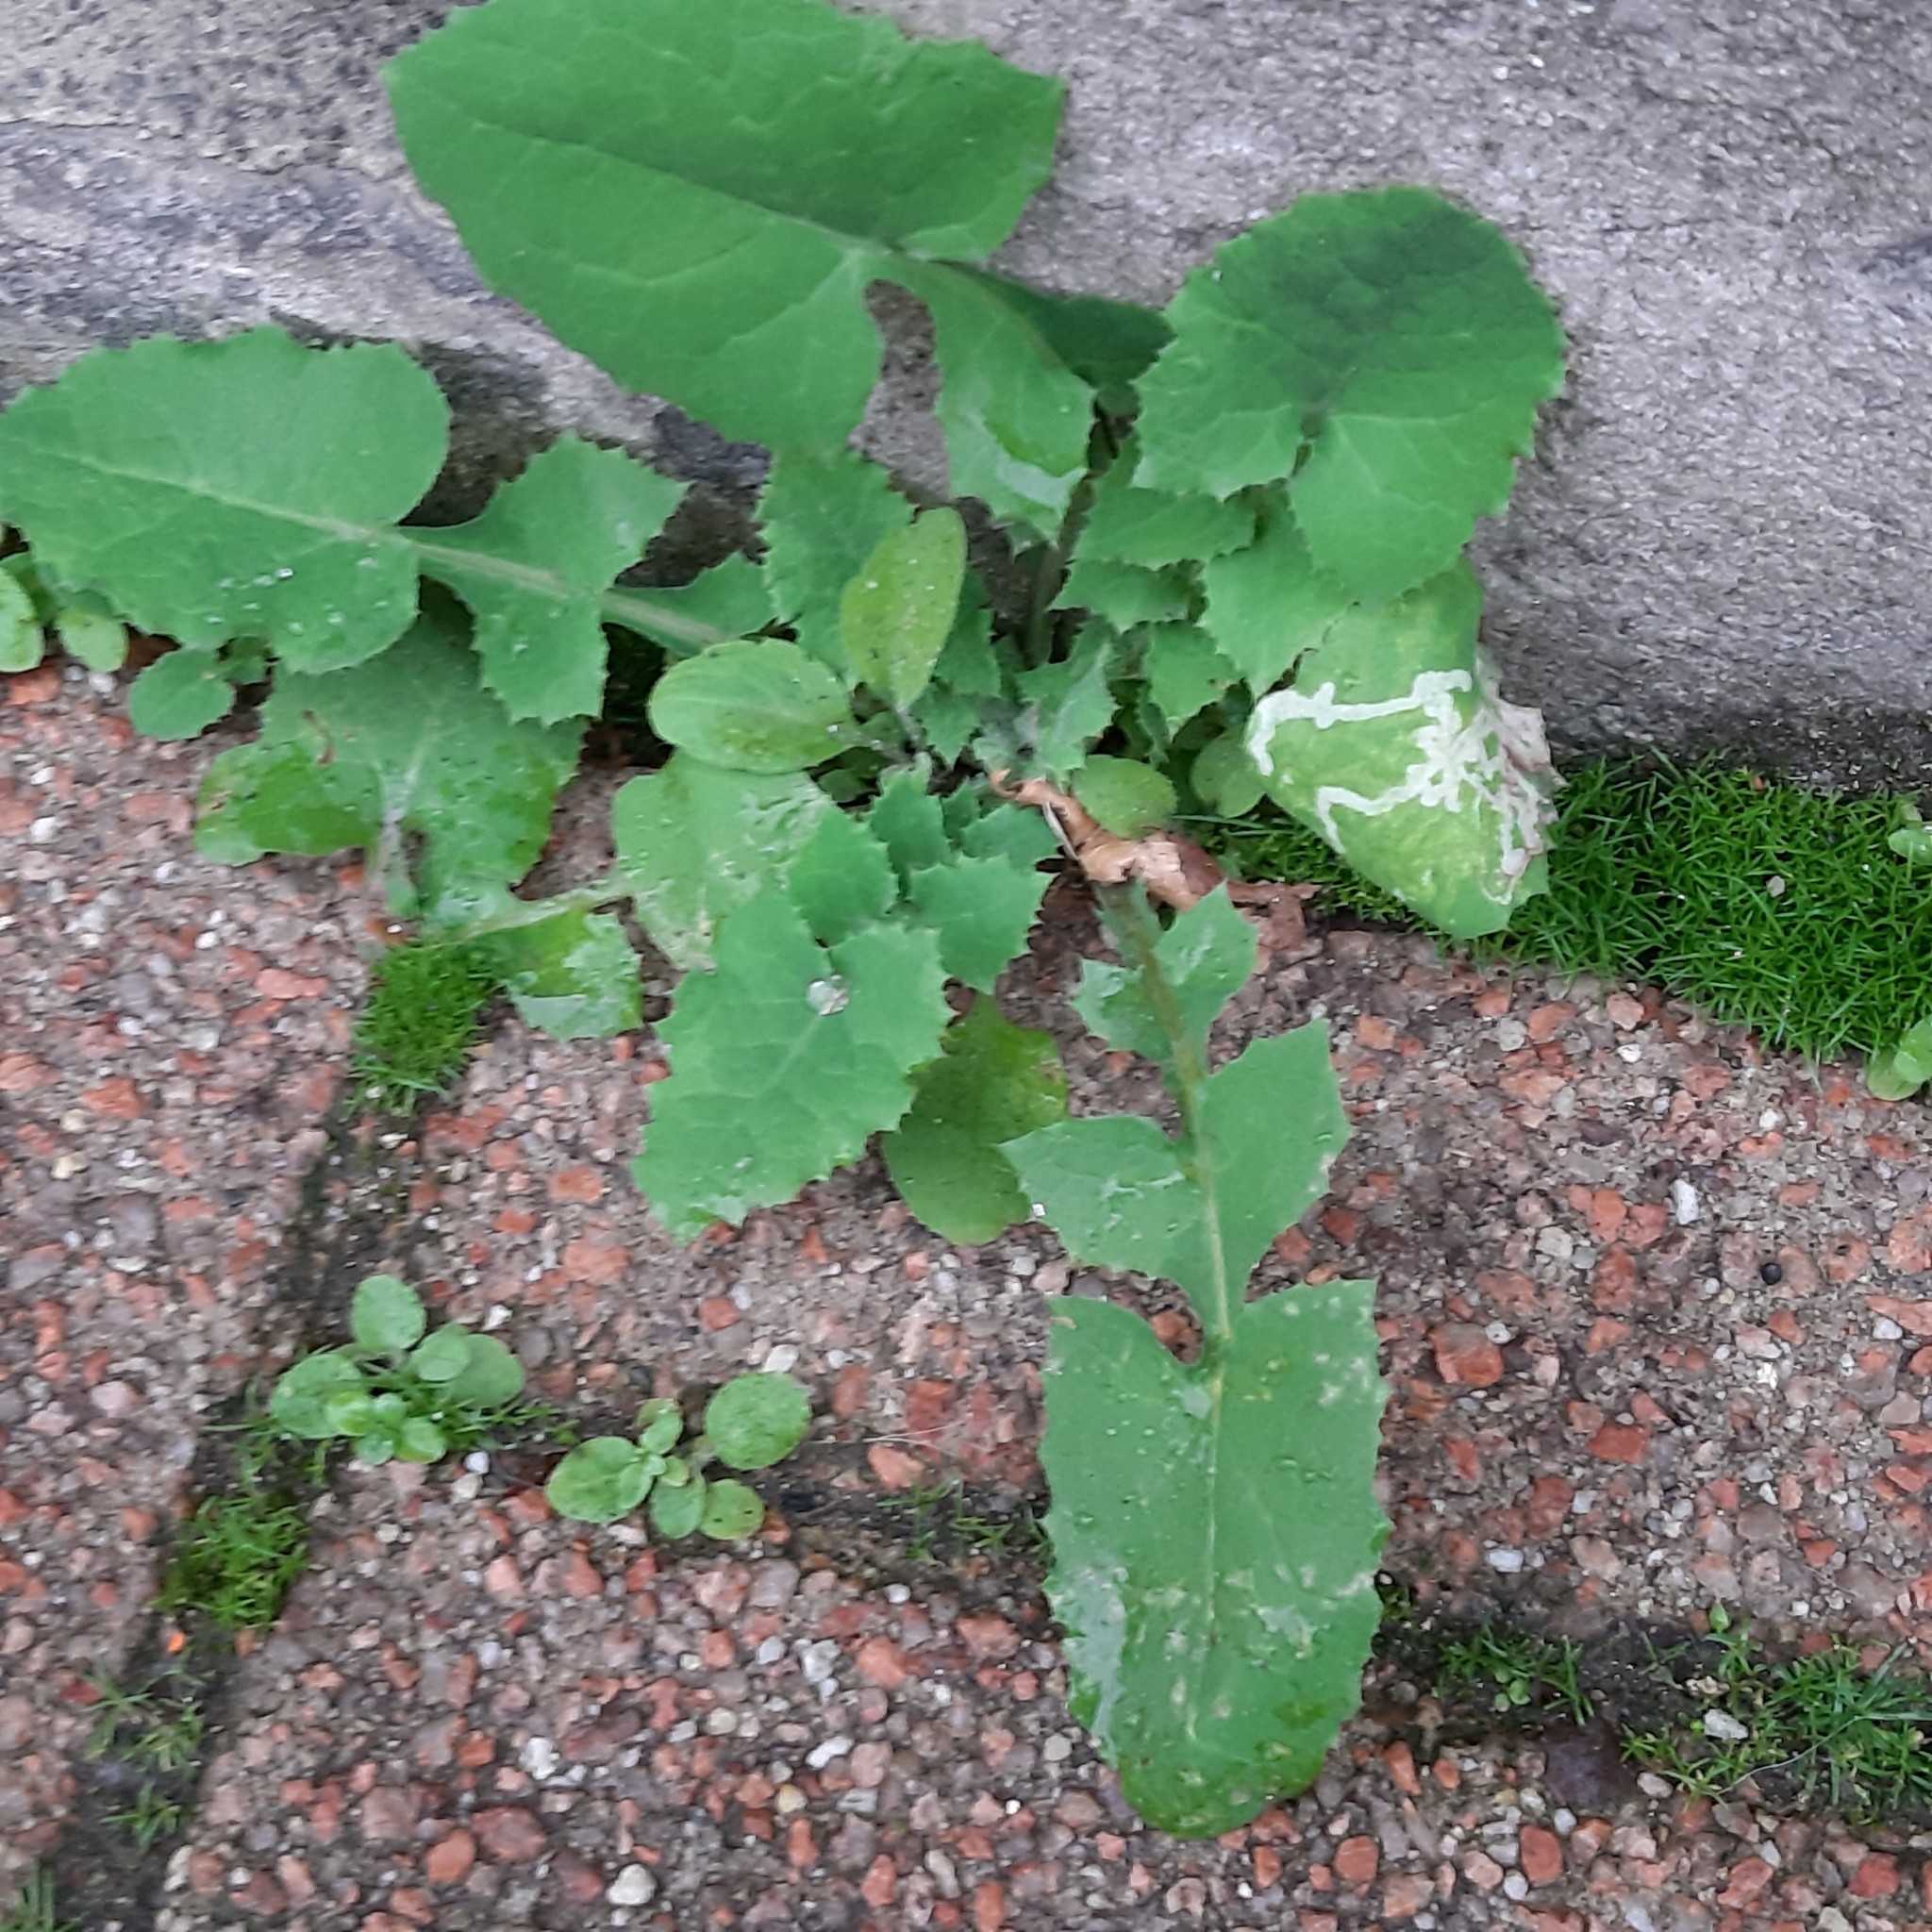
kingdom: Plantae
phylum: Tracheophyta
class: Magnoliopsida
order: Asterales
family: Asteraceae
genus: Sonchus
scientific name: Sonchus oleraceus
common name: Common sowthistle
